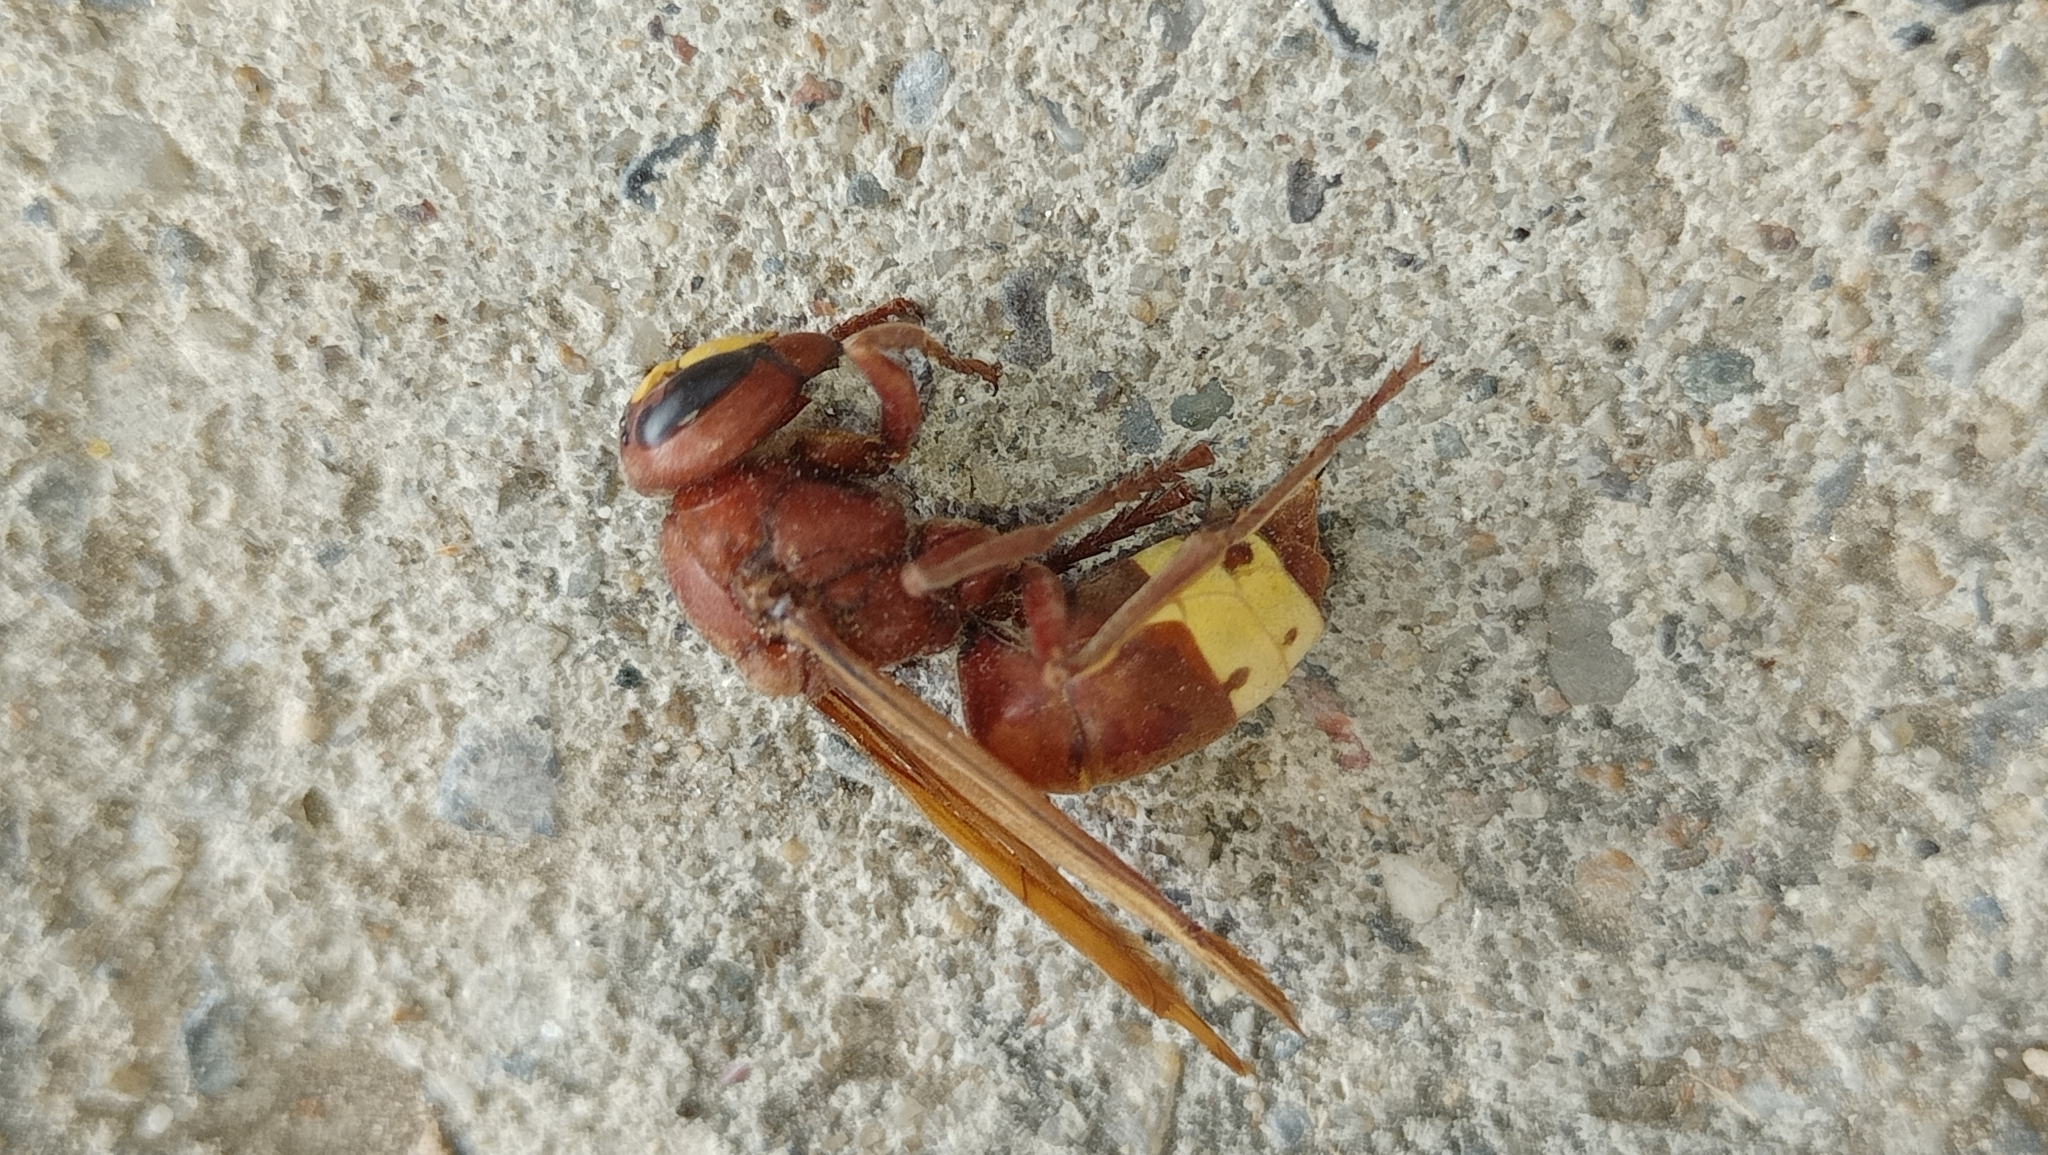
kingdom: Animalia
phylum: Arthropoda
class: Insecta
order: Hymenoptera
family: Vespidae
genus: Vespa
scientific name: Vespa orientalis
